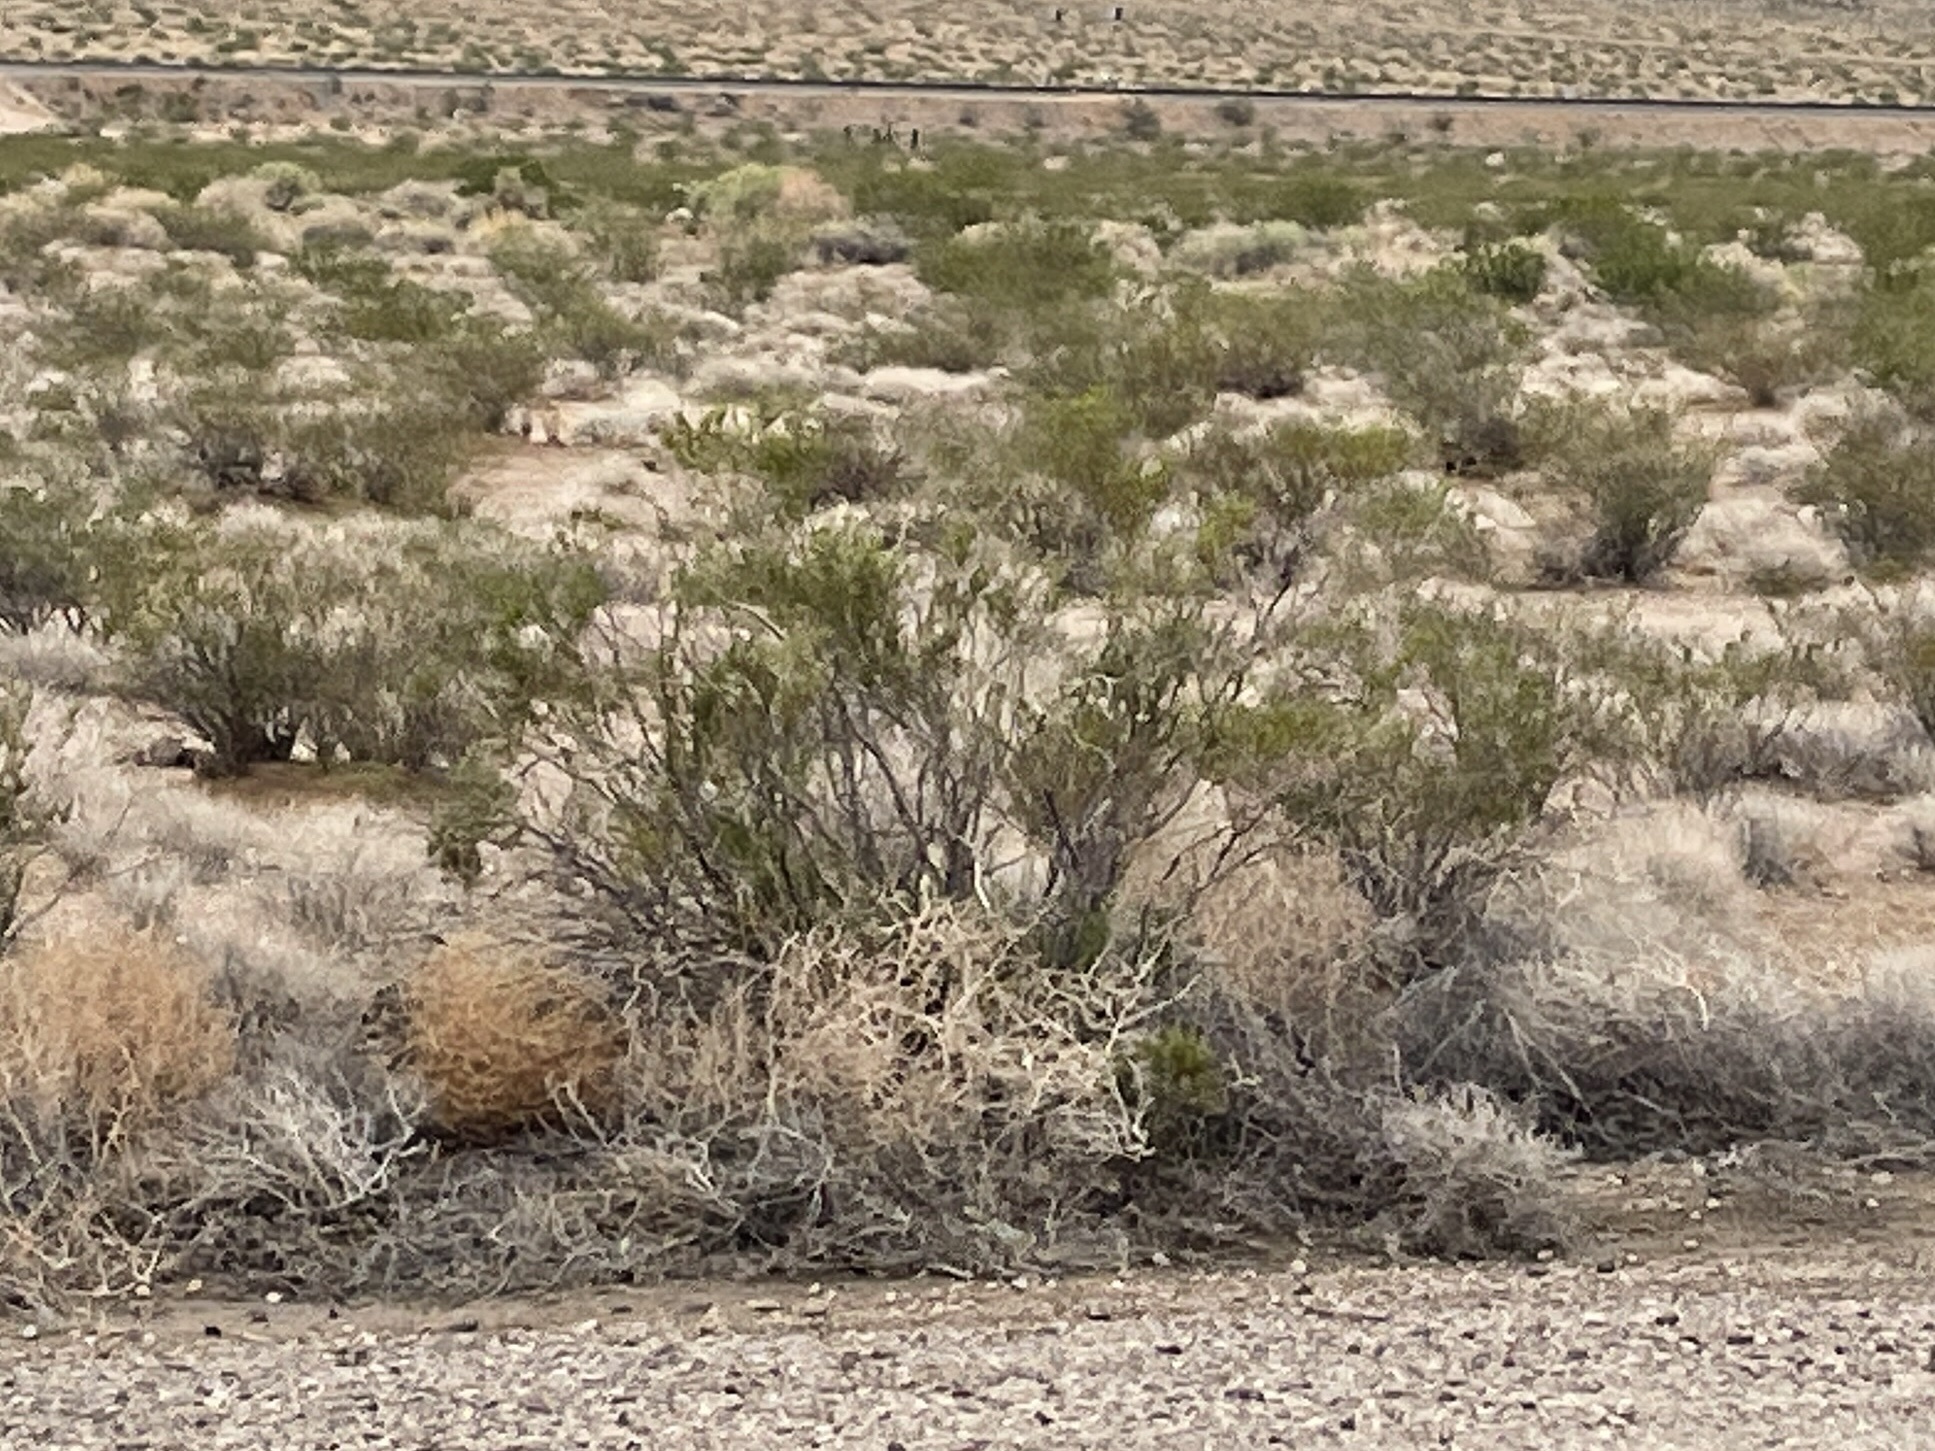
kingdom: Plantae
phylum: Tracheophyta
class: Magnoliopsida
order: Zygophyllales
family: Zygophyllaceae
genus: Larrea
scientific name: Larrea tridentata
